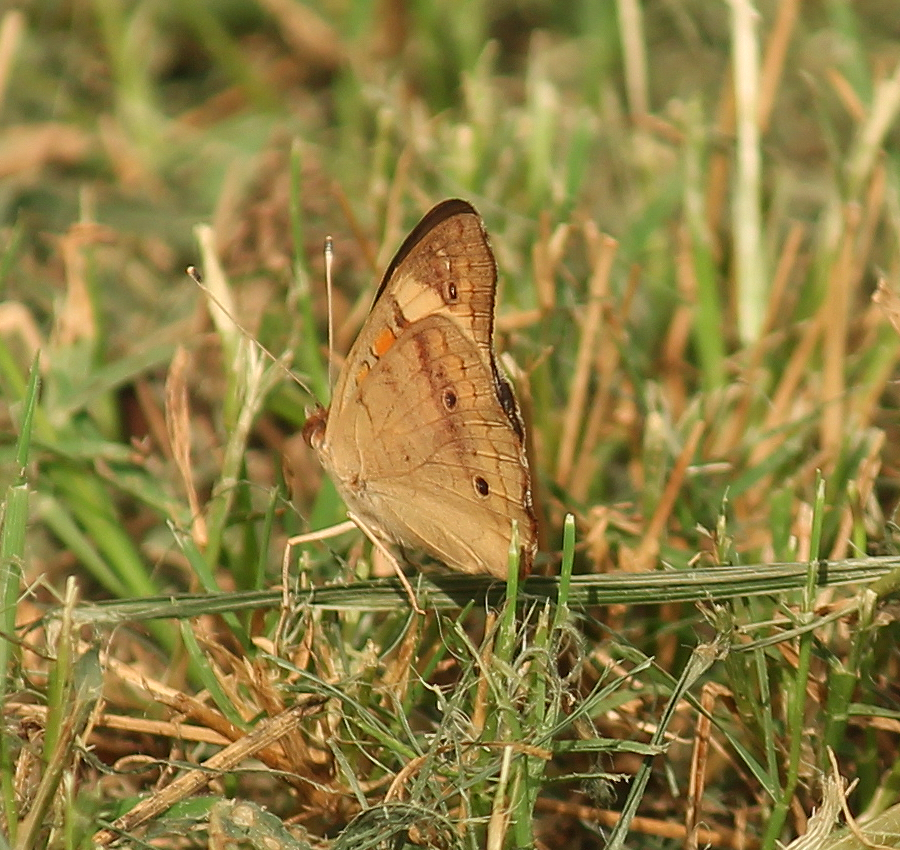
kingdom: Animalia
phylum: Arthropoda
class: Insecta
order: Lepidoptera
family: Nymphalidae
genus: Junonia
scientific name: Junonia coenia
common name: Common buckeye
